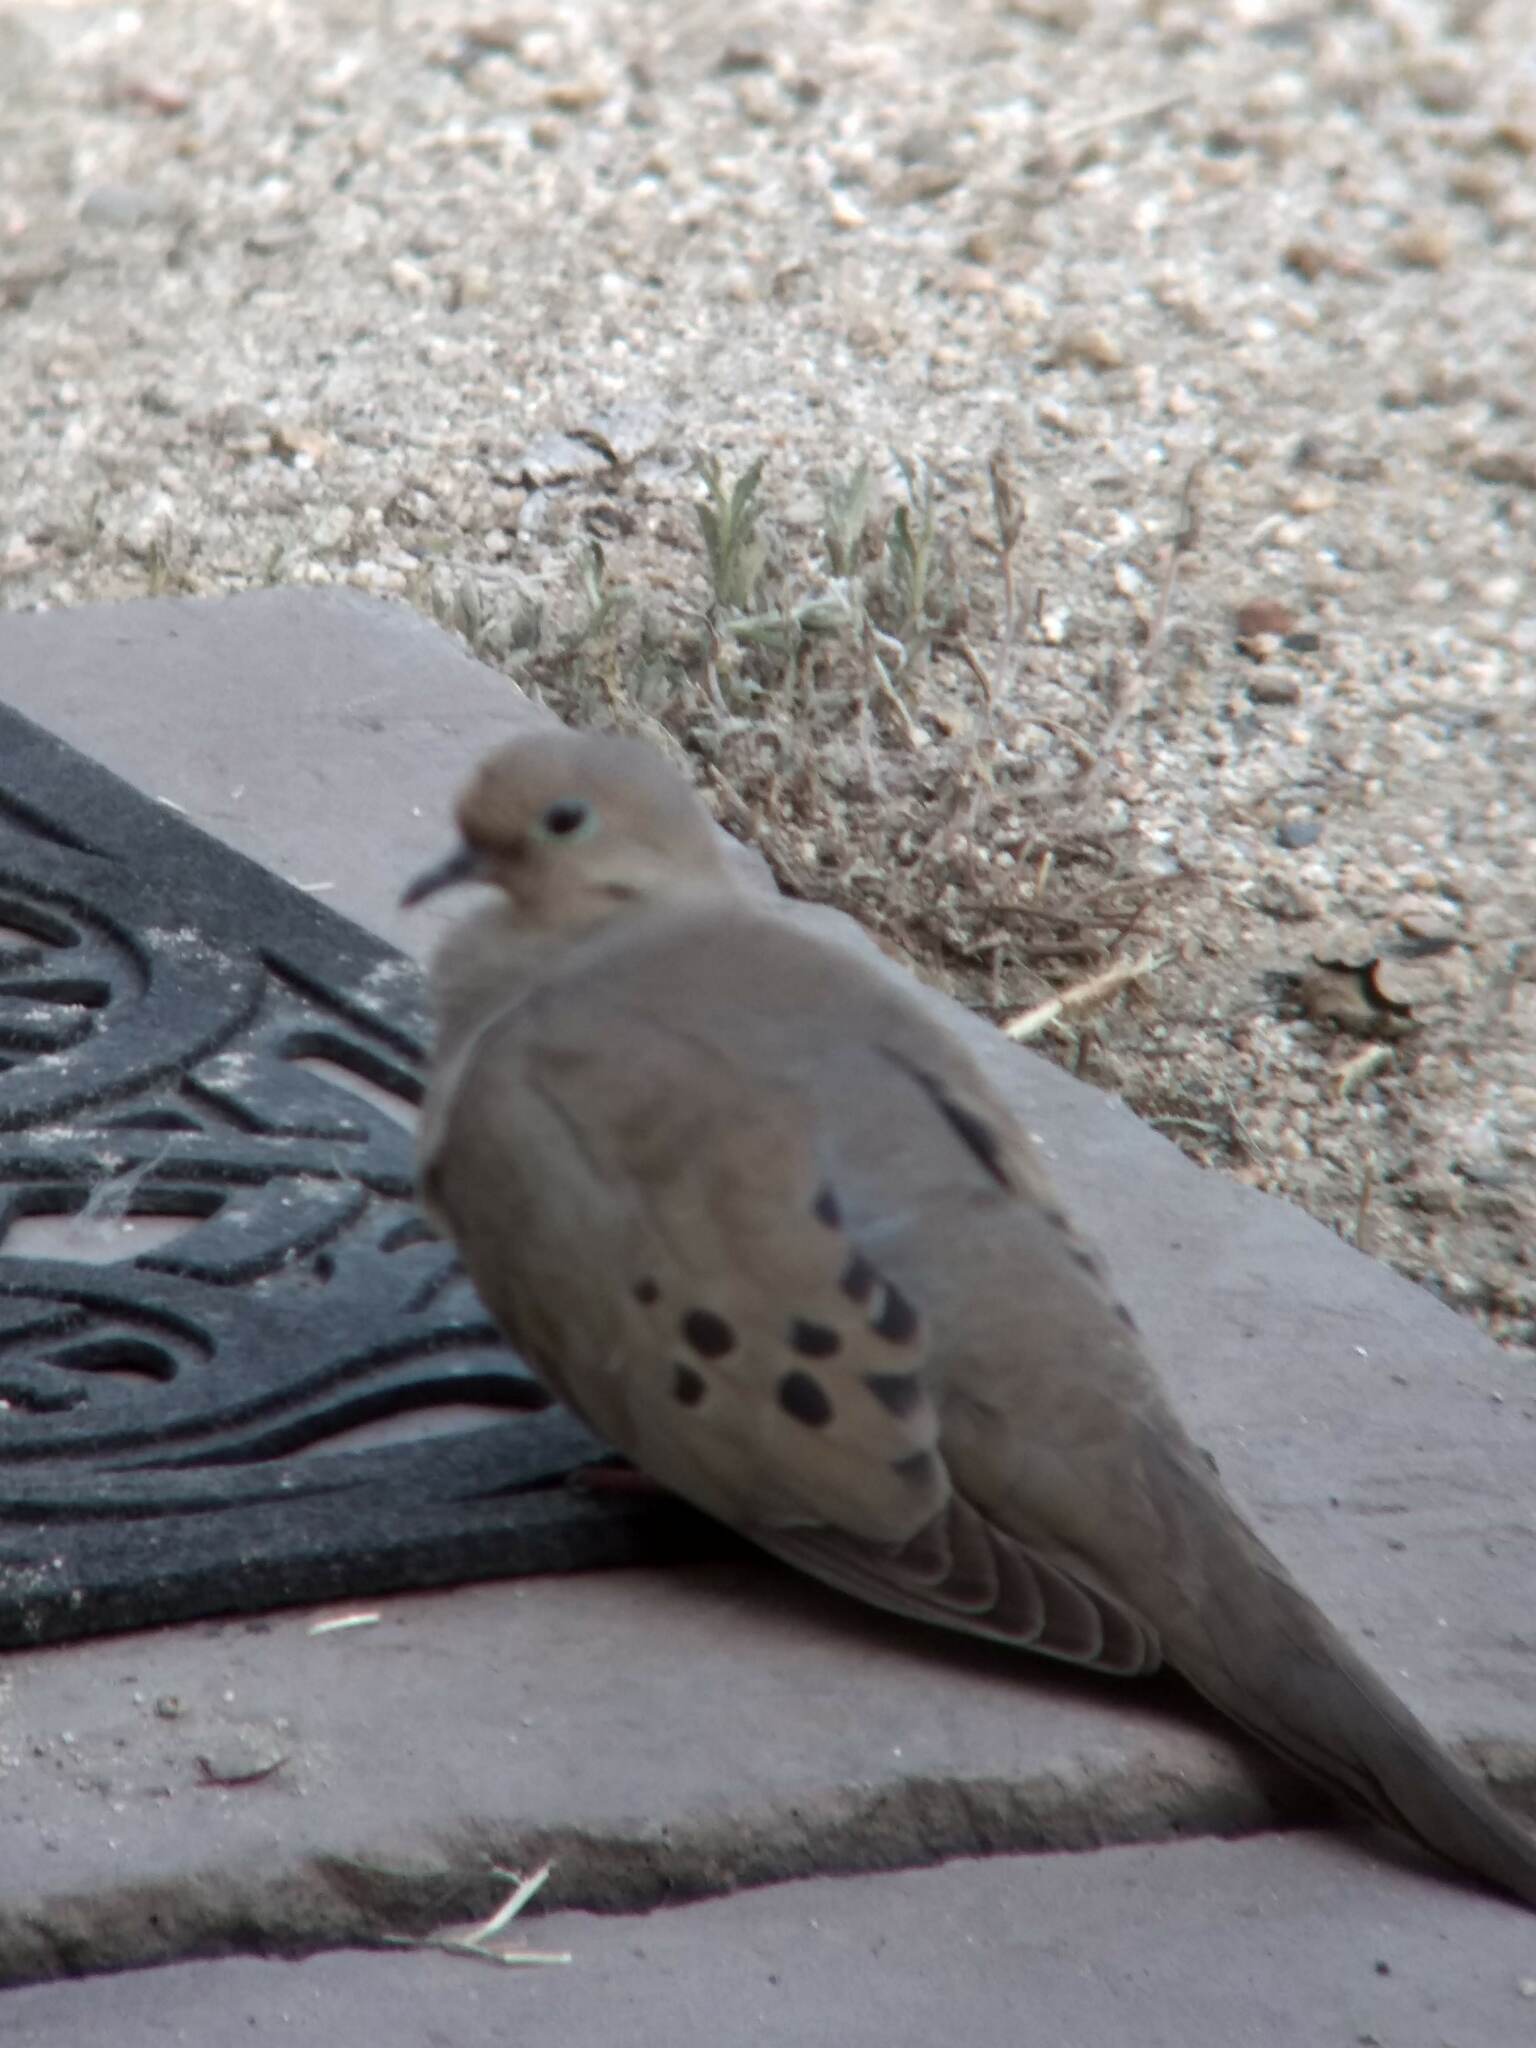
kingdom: Animalia
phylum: Chordata
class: Aves
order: Columbiformes
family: Columbidae
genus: Zenaida
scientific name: Zenaida macroura
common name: Mourning dove
